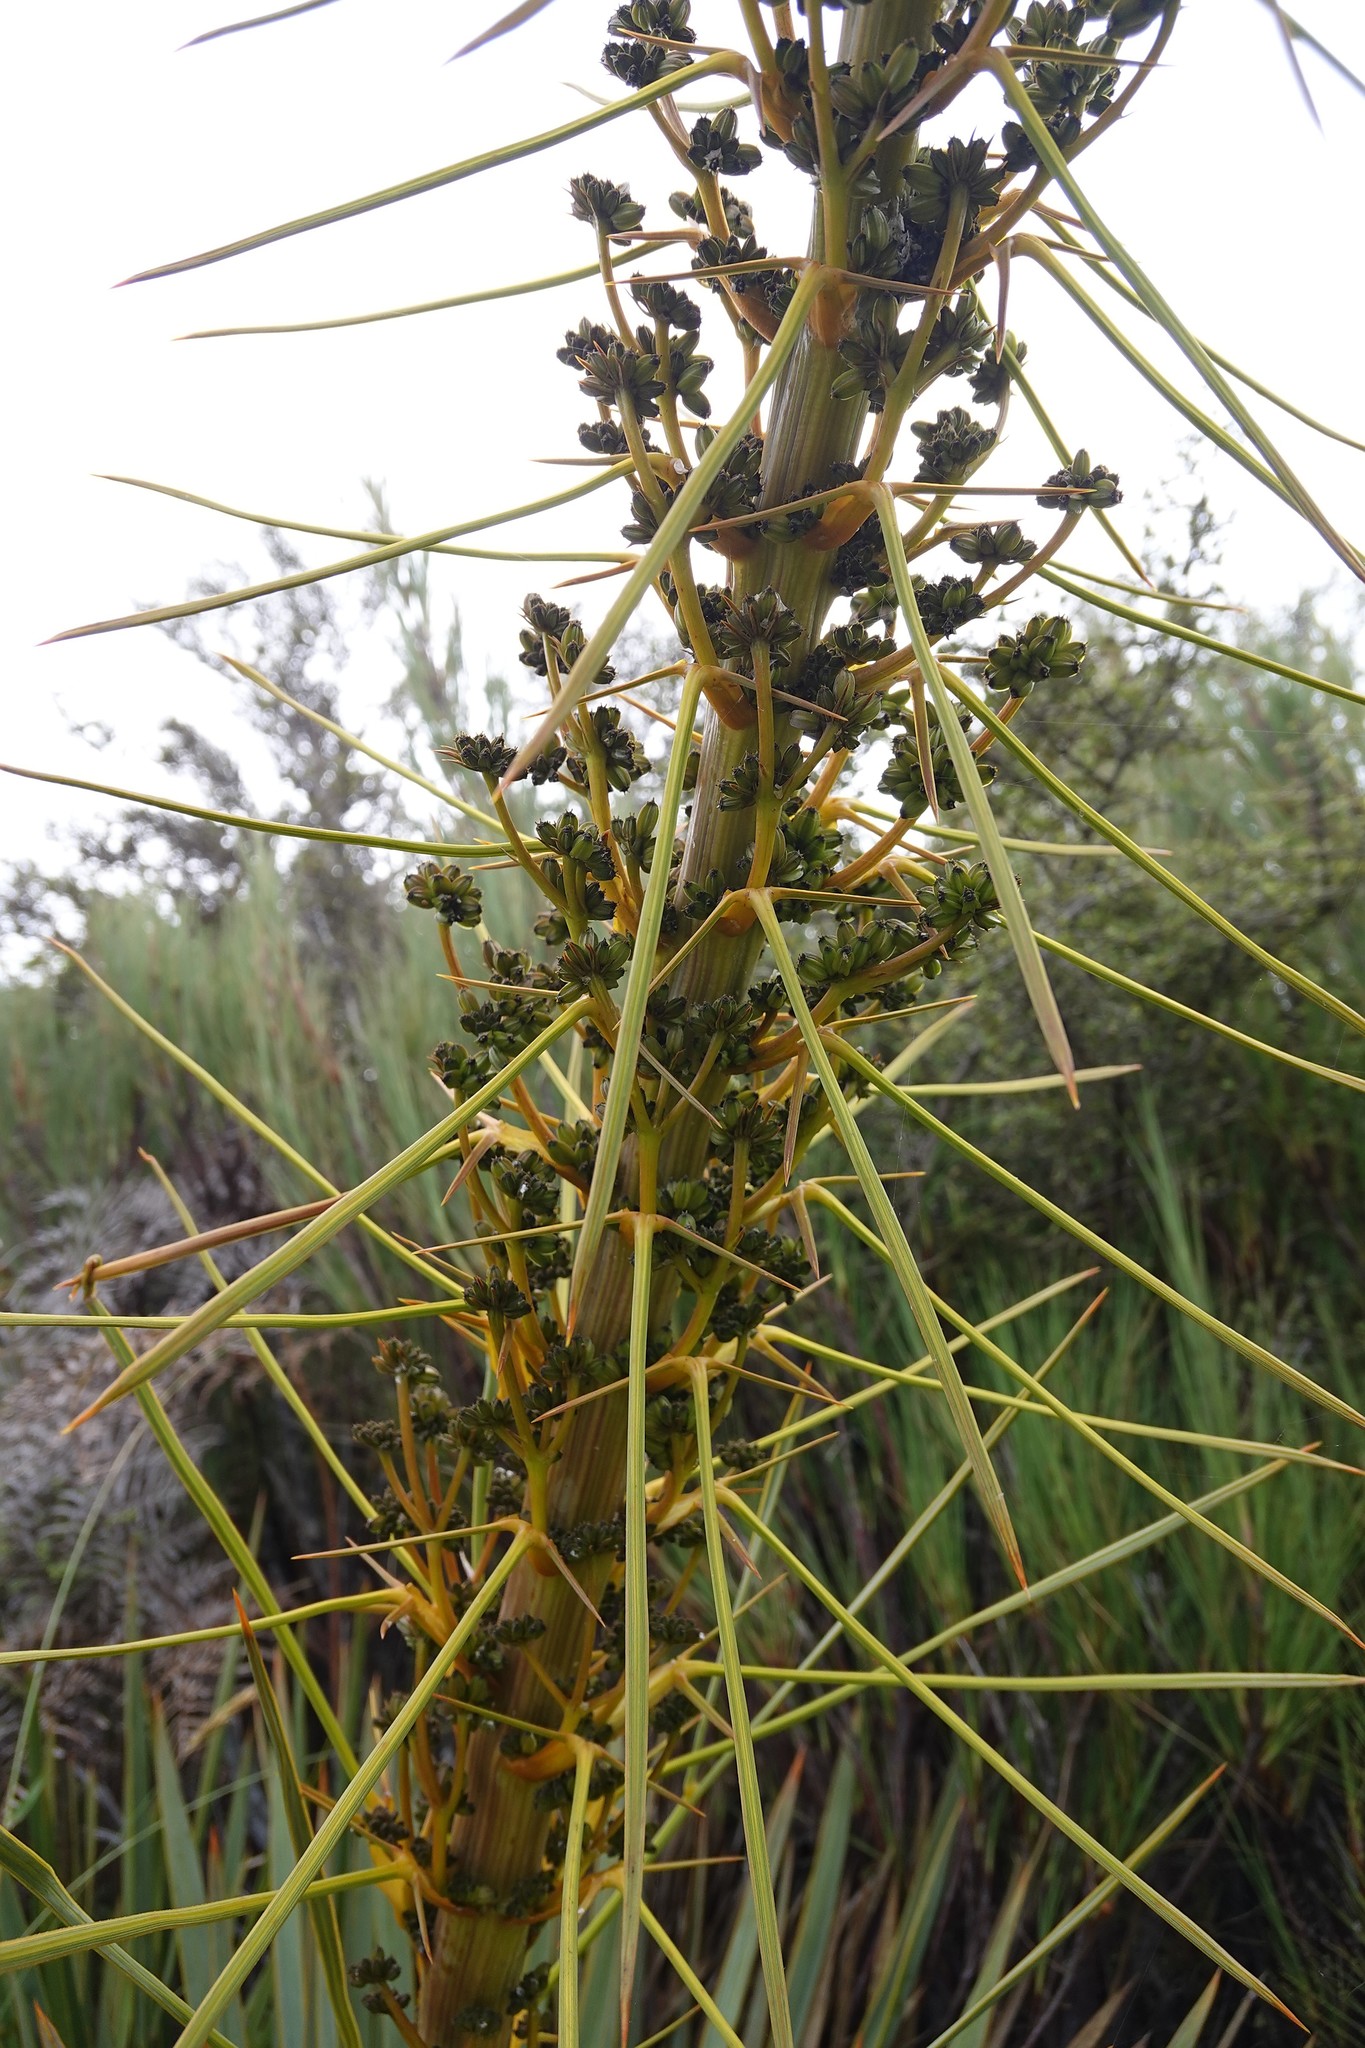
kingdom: Plantae
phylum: Tracheophyta
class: Magnoliopsida
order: Apiales
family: Apiaceae
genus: Aciphylla
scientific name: Aciphylla aurea
